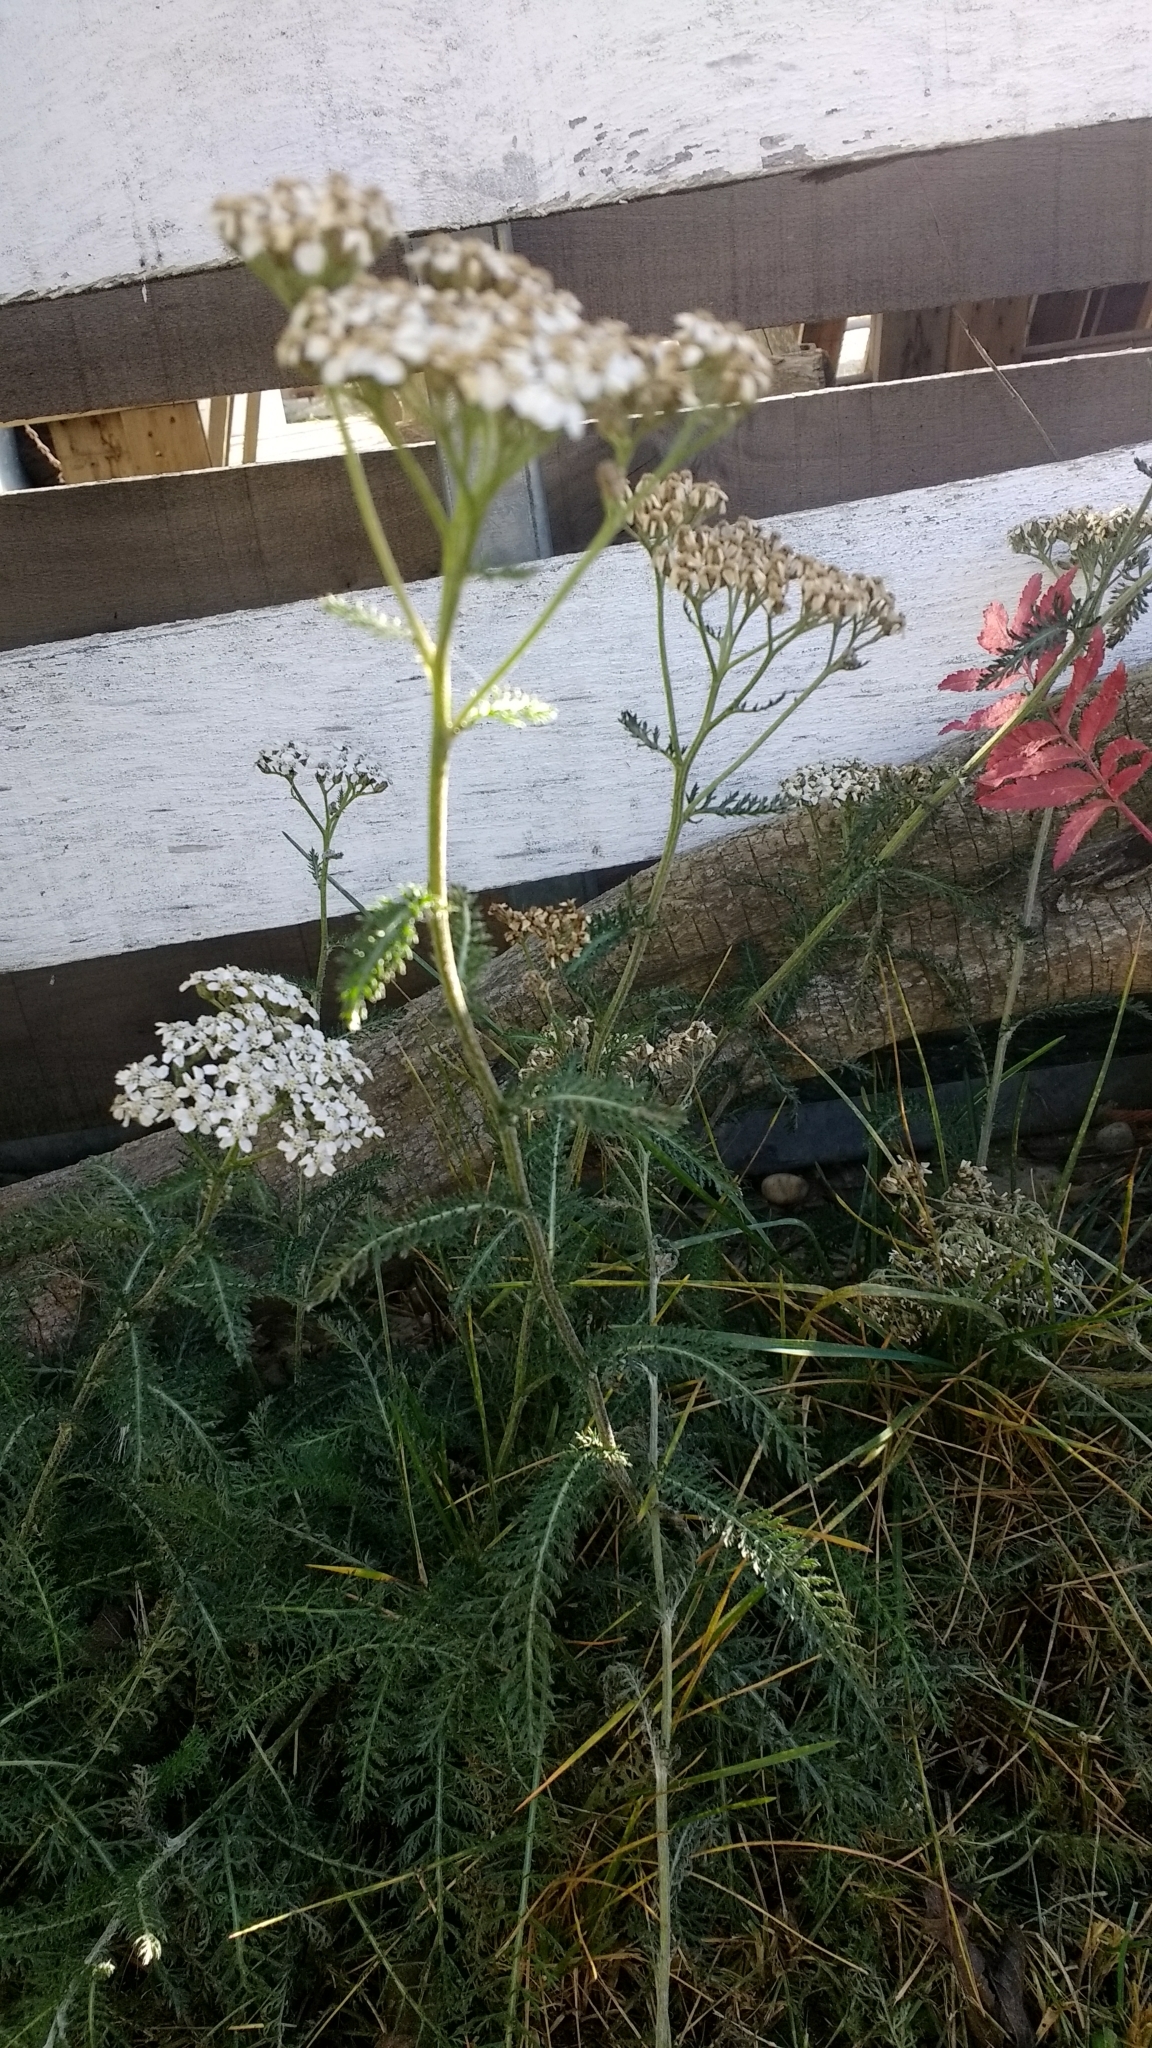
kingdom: Plantae
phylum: Tracheophyta
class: Magnoliopsida
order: Asterales
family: Asteraceae
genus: Achillea
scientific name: Achillea millefolium
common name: Yarrow
